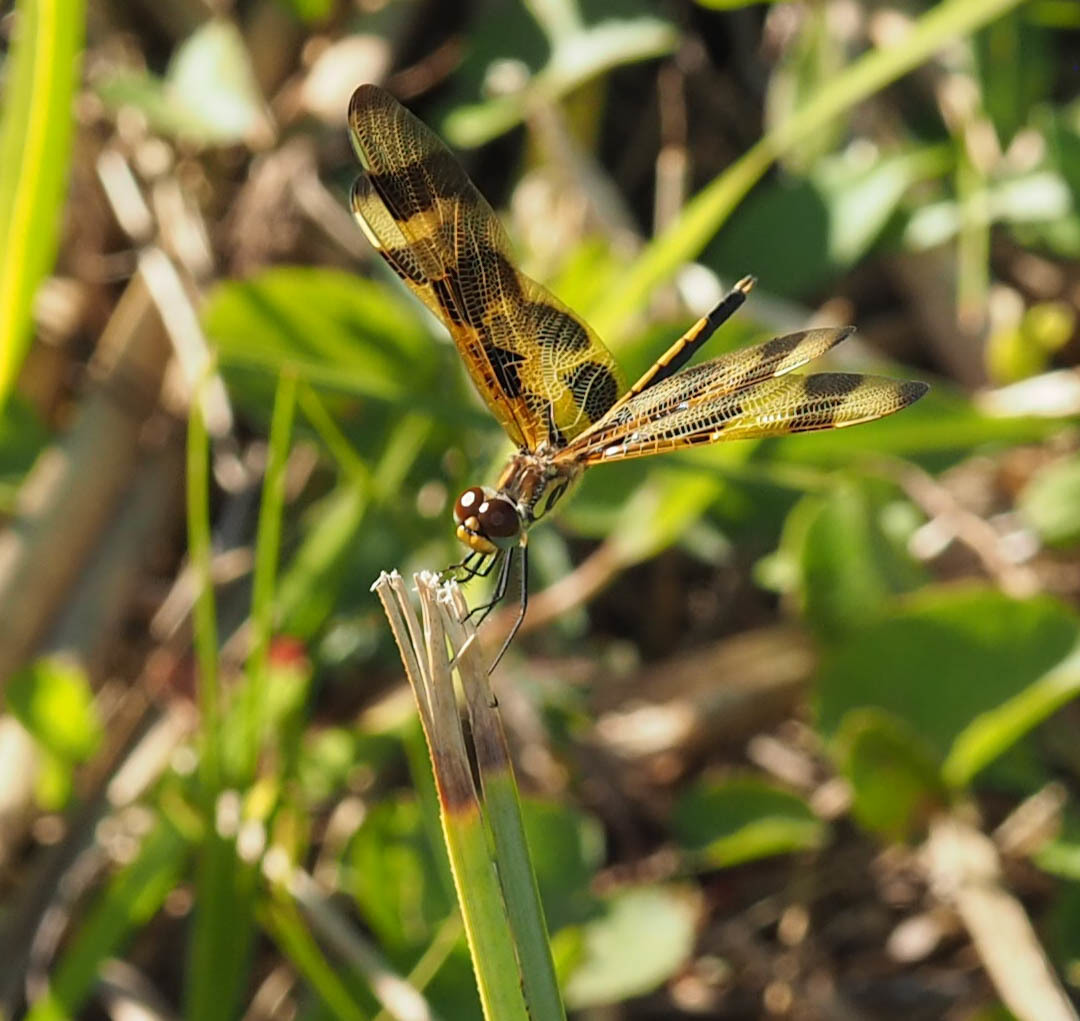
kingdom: Animalia
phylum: Arthropoda
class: Insecta
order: Odonata
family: Libellulidae
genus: Celithemis
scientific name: Celithemis eponina
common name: Halloween pennant
